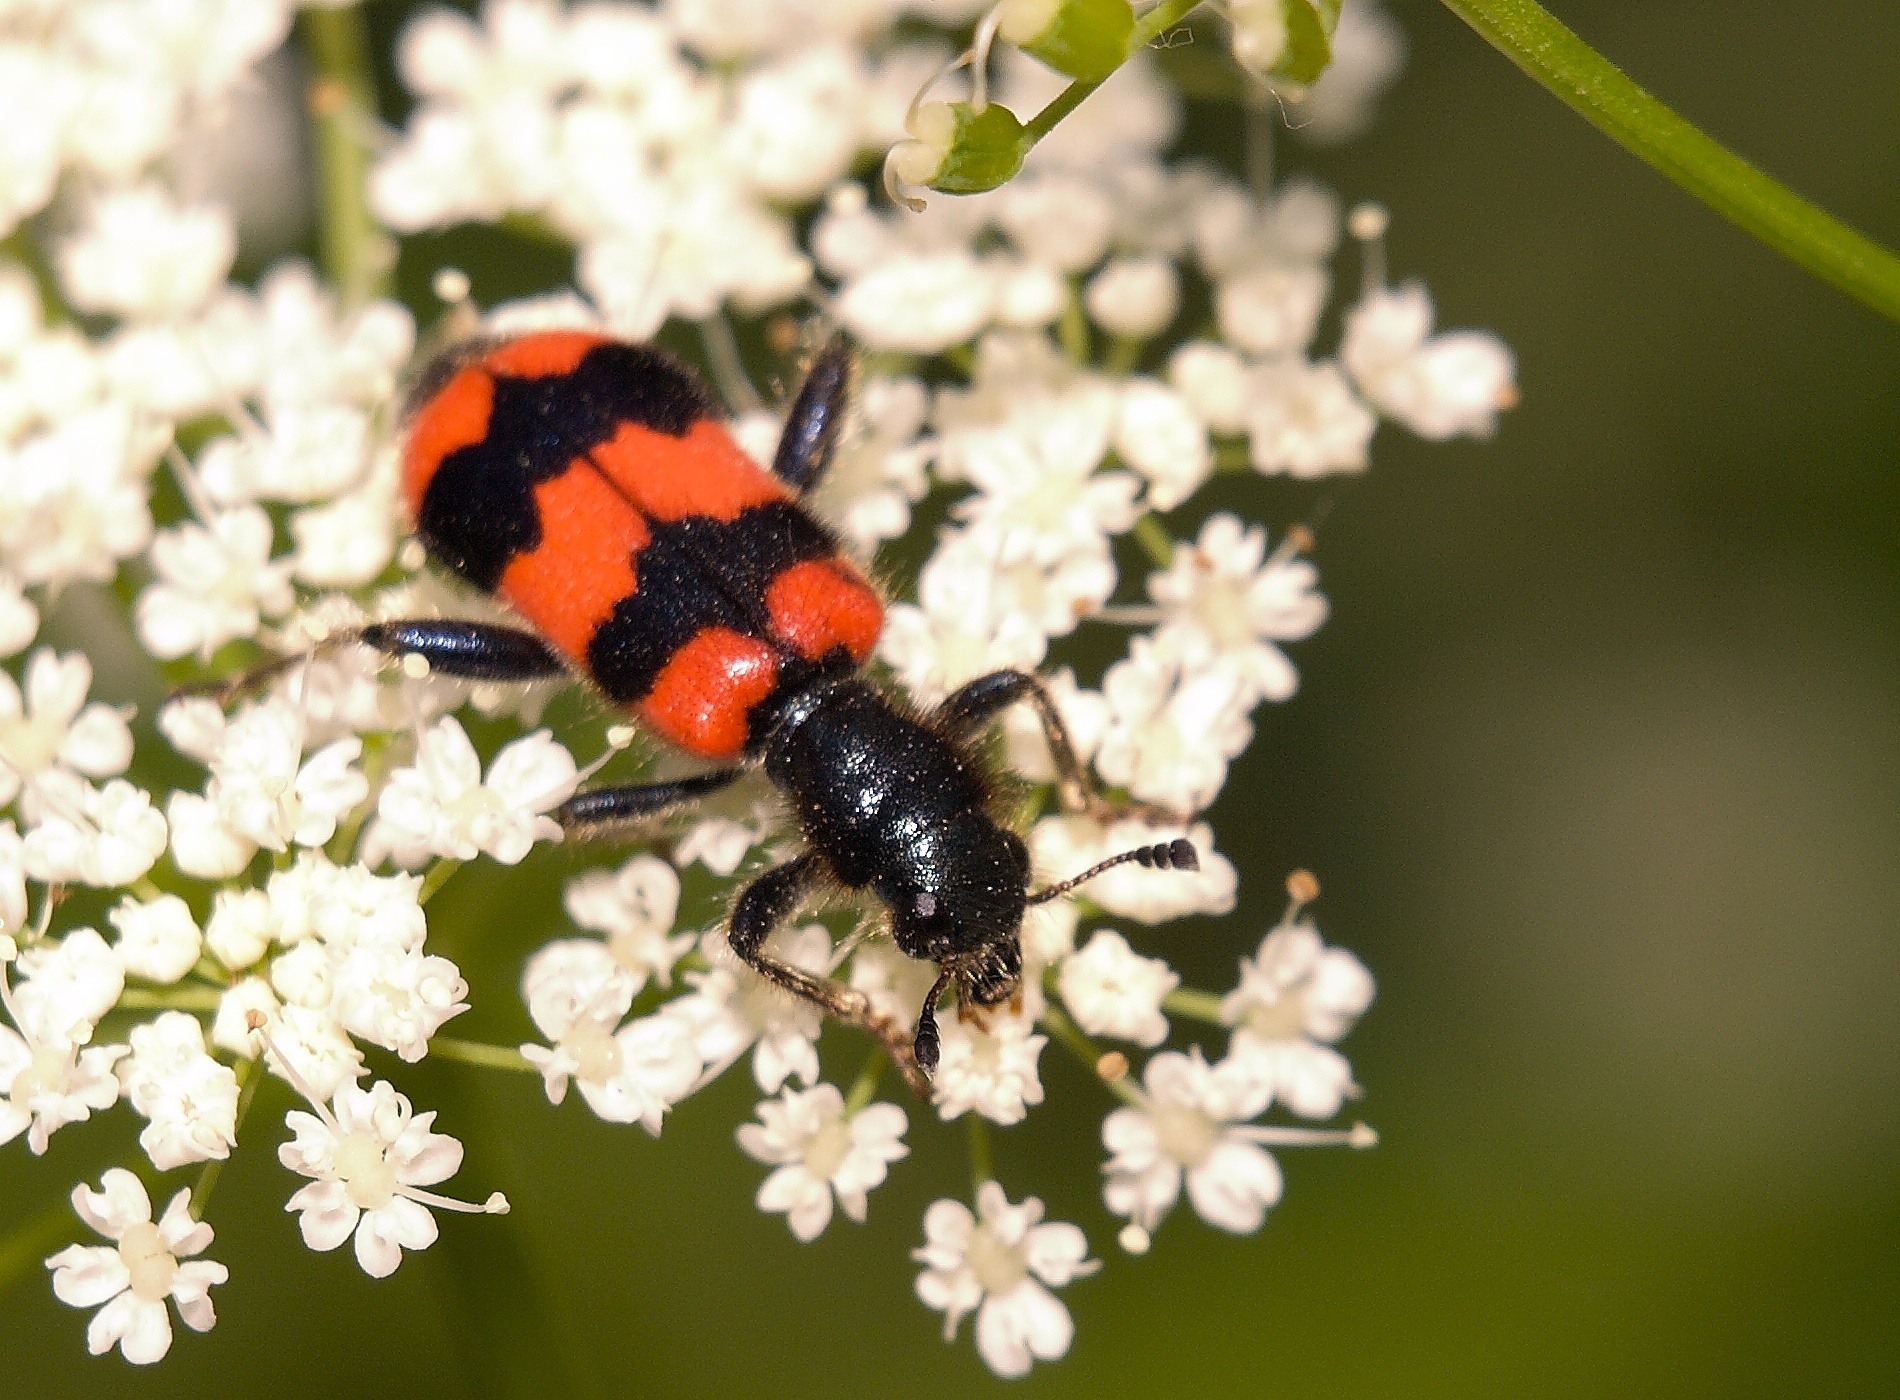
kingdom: Animalia
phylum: Arthropoda
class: Insecta
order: Coleoptera
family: Cleridae
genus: Trichodes
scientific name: Trichodes apiarius
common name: Bee-eating beetle
